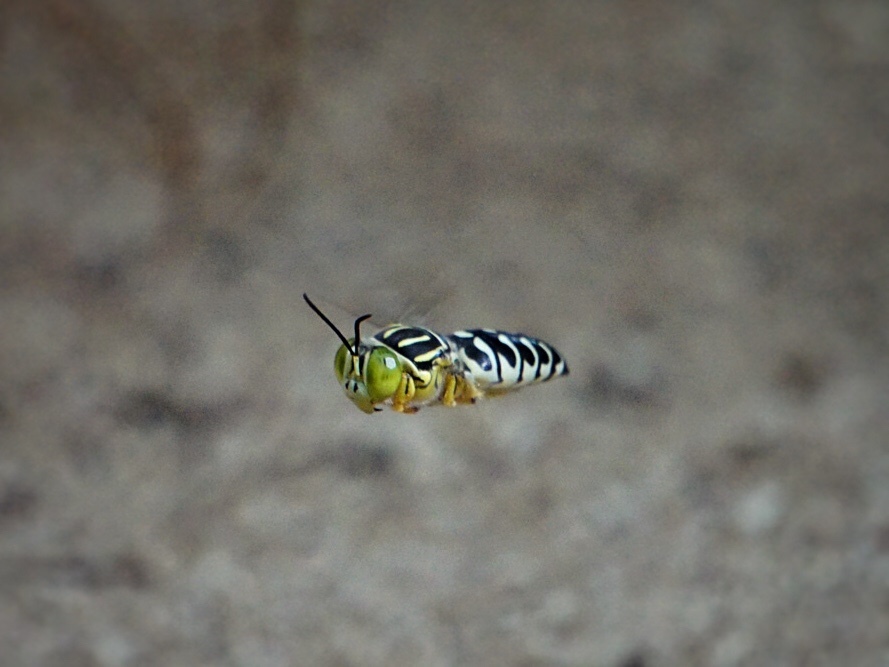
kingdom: Animalia
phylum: Arthropoda
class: Insecta
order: Hymenoptera
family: Crabronidae
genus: Stictia
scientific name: Stictia signata
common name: Sand wasp
